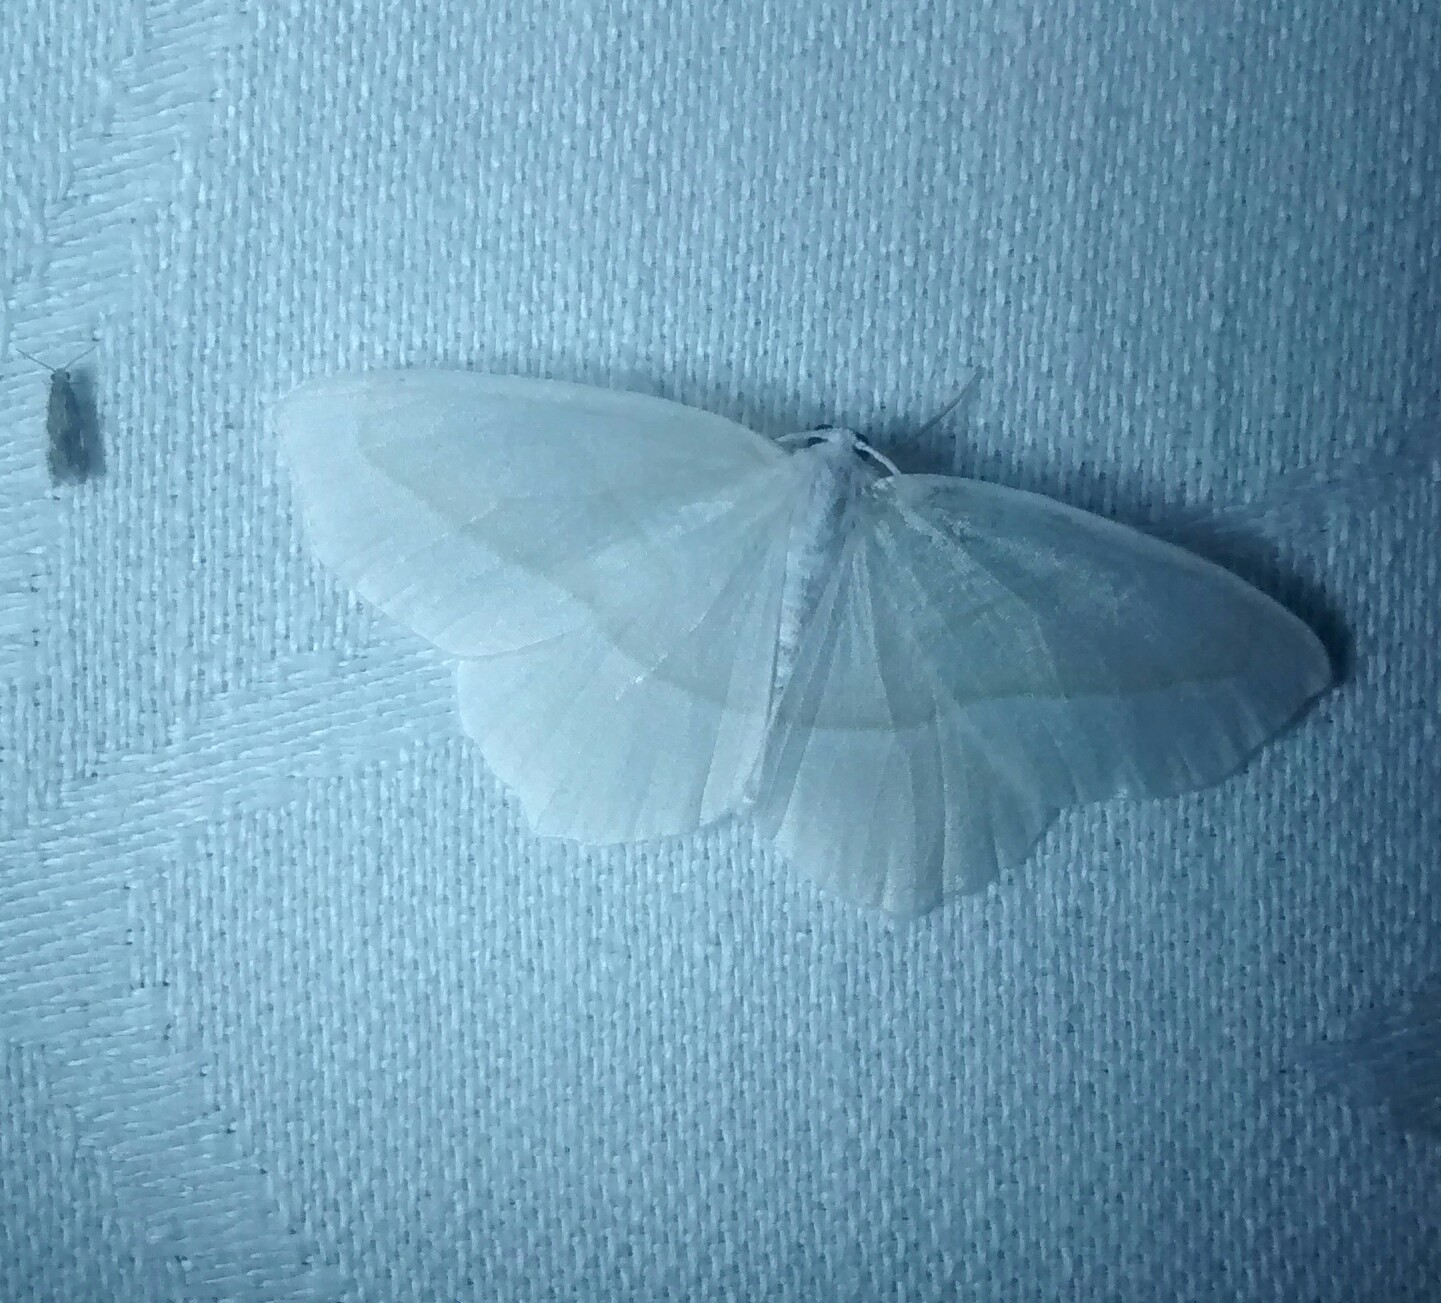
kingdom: Animalia
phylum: Arthropoda
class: Insecta
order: Lepidoptera
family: Geometridae
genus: Campaea
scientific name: Campaea perlata
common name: Fringed looper
